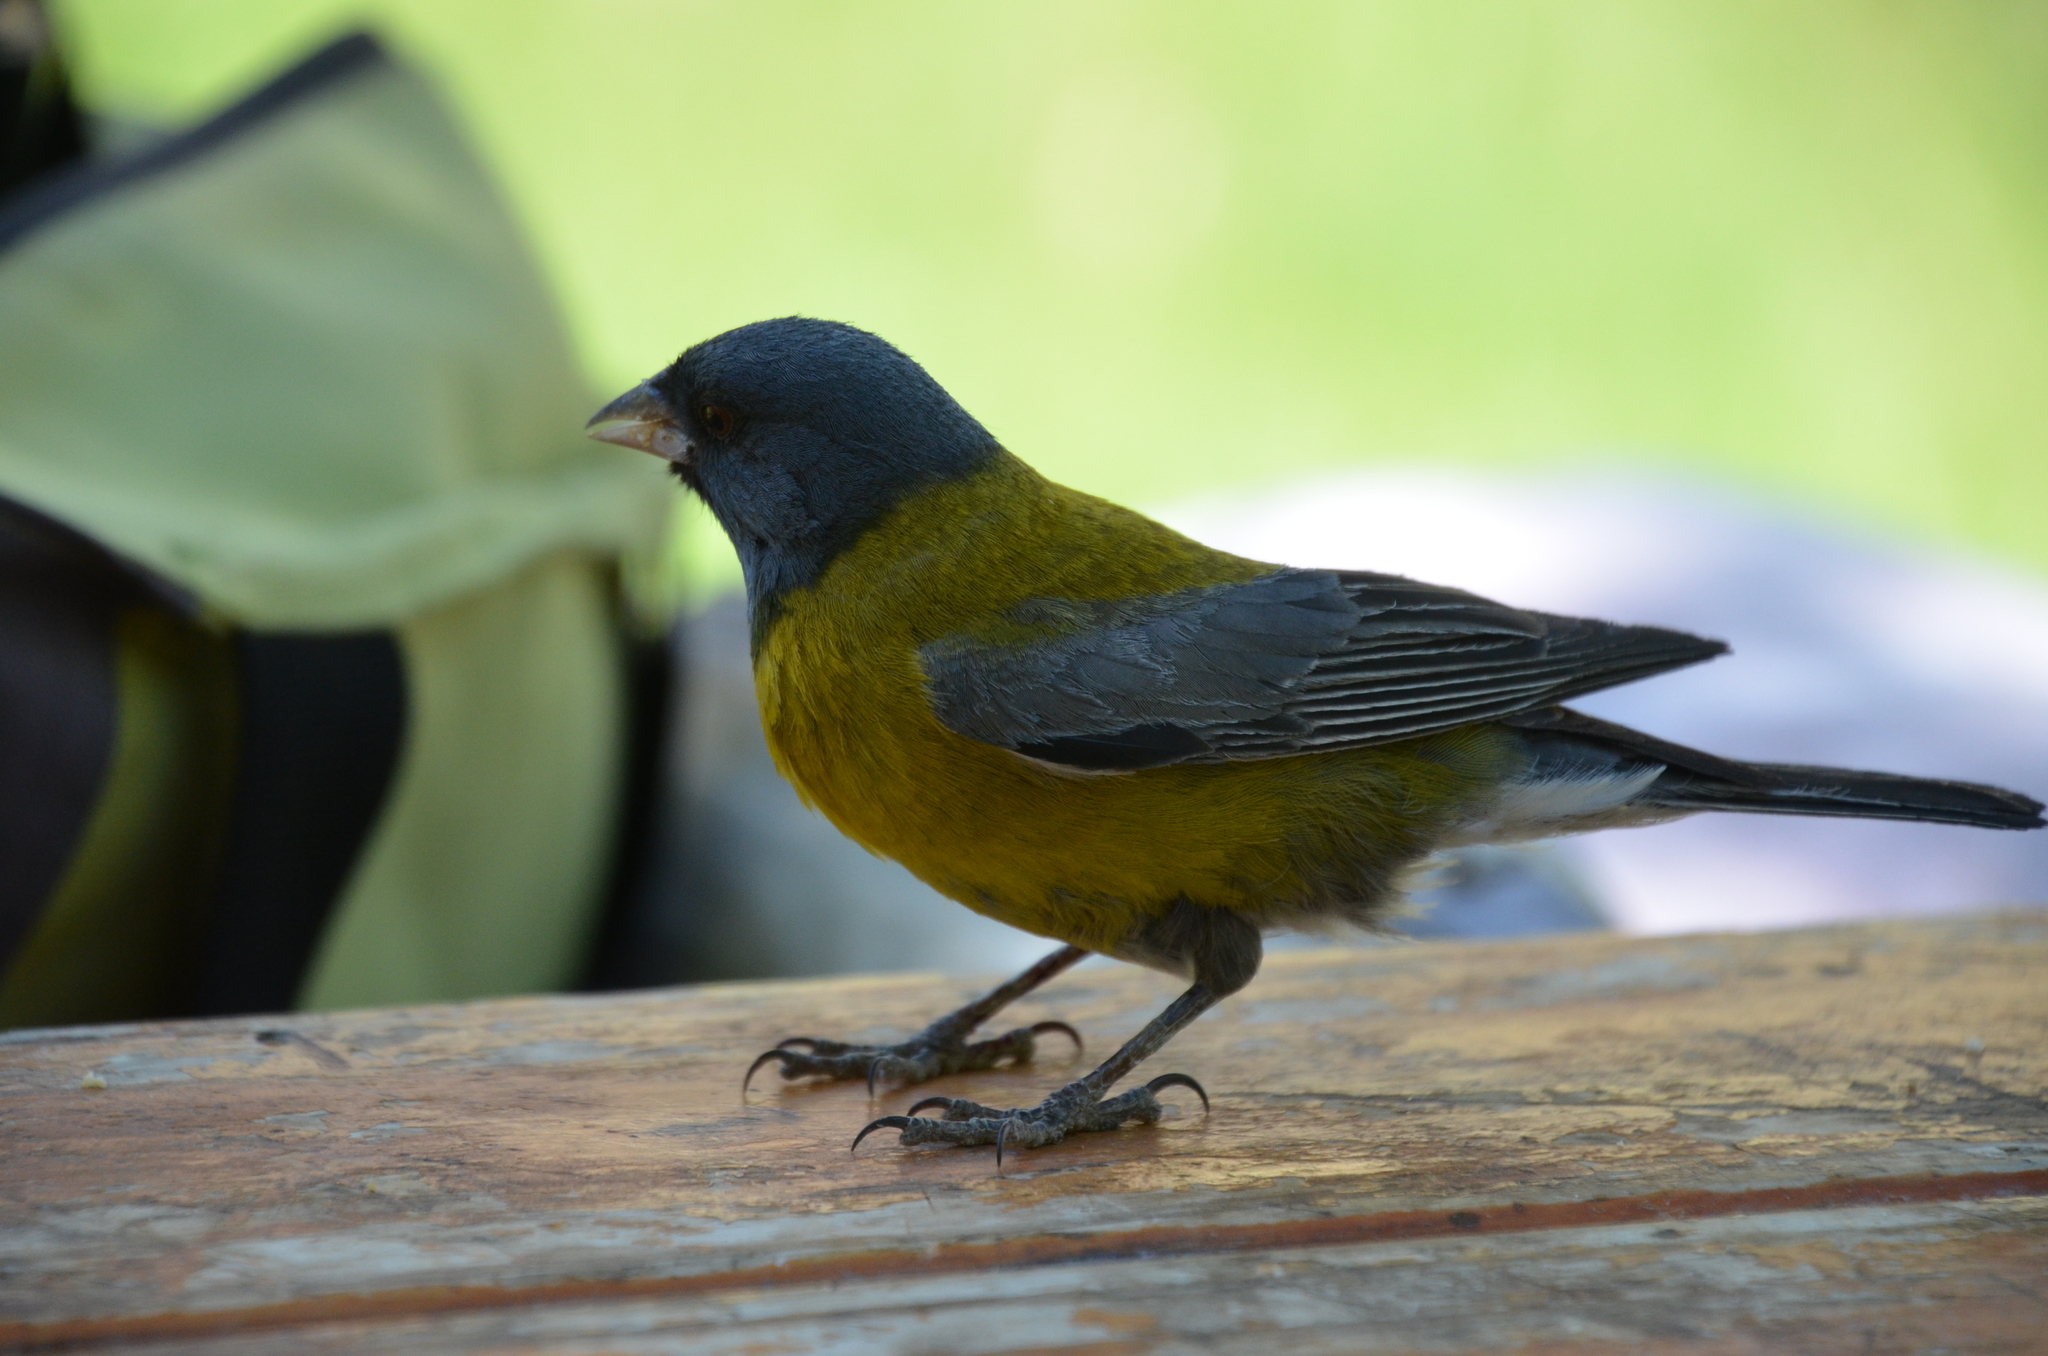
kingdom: Animalia
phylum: Chordata
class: Aves
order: Passeriformes
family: Thraupidae
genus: Phrygilus
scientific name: Phrygilus gayi
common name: Grey-hooded sierra finch
